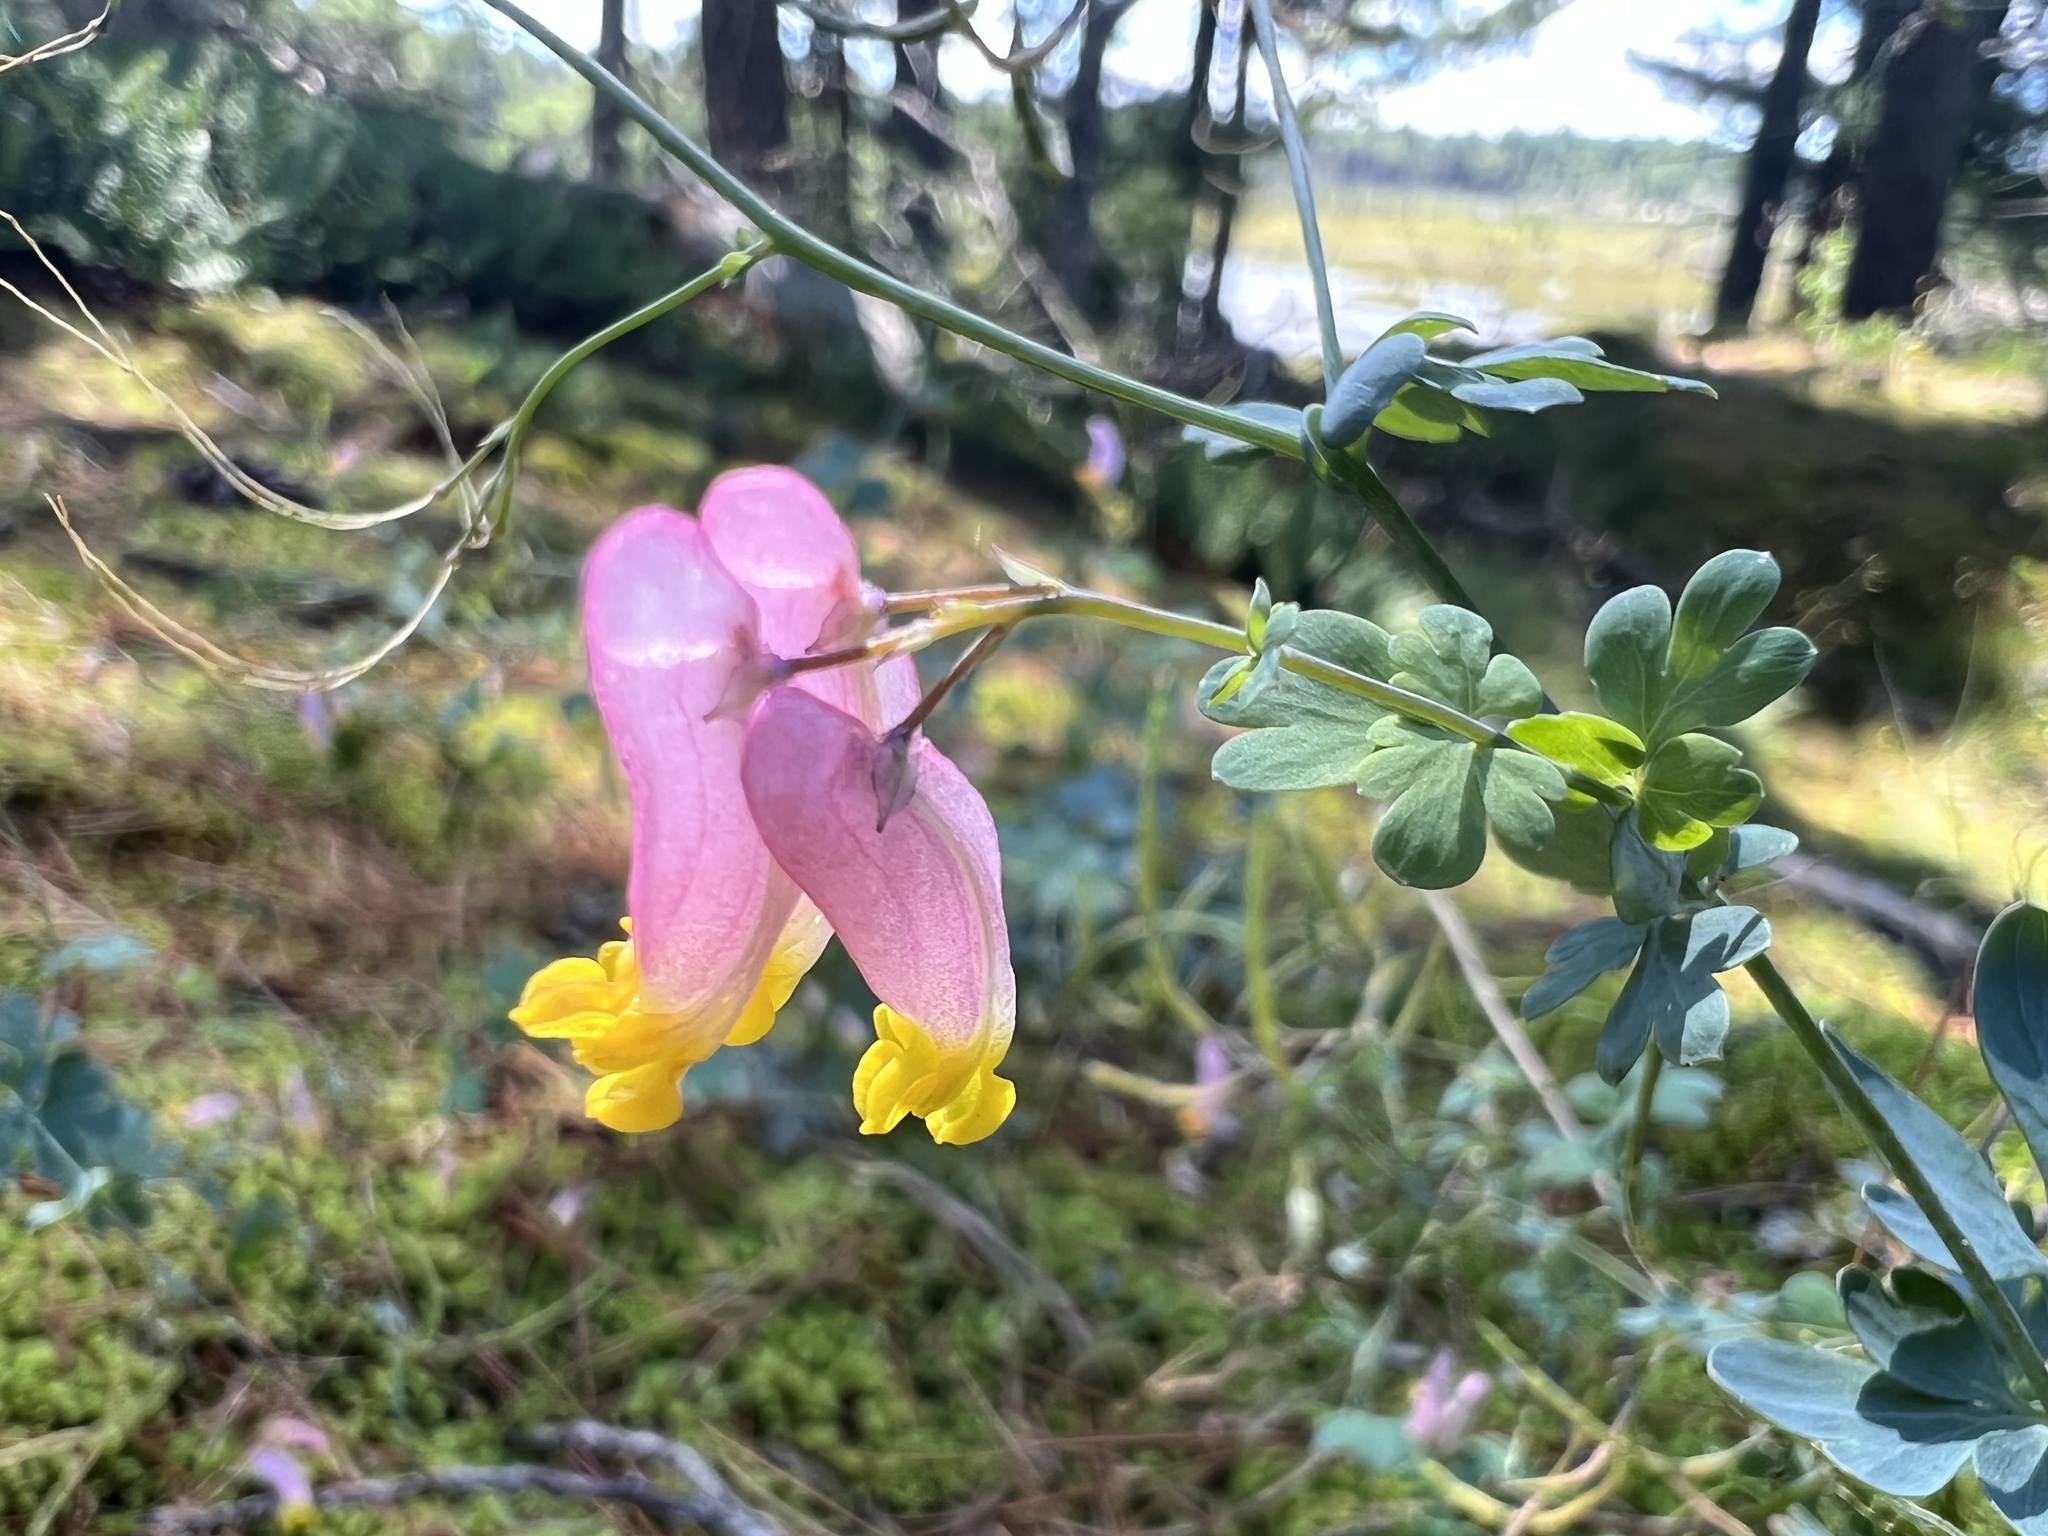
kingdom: Plantae
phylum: Tracheophyta
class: Magnoliopsida
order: Ranunculales
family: Papaveraceae
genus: Capnoides
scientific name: Capnoides sempervirens
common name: Rock harlequin
